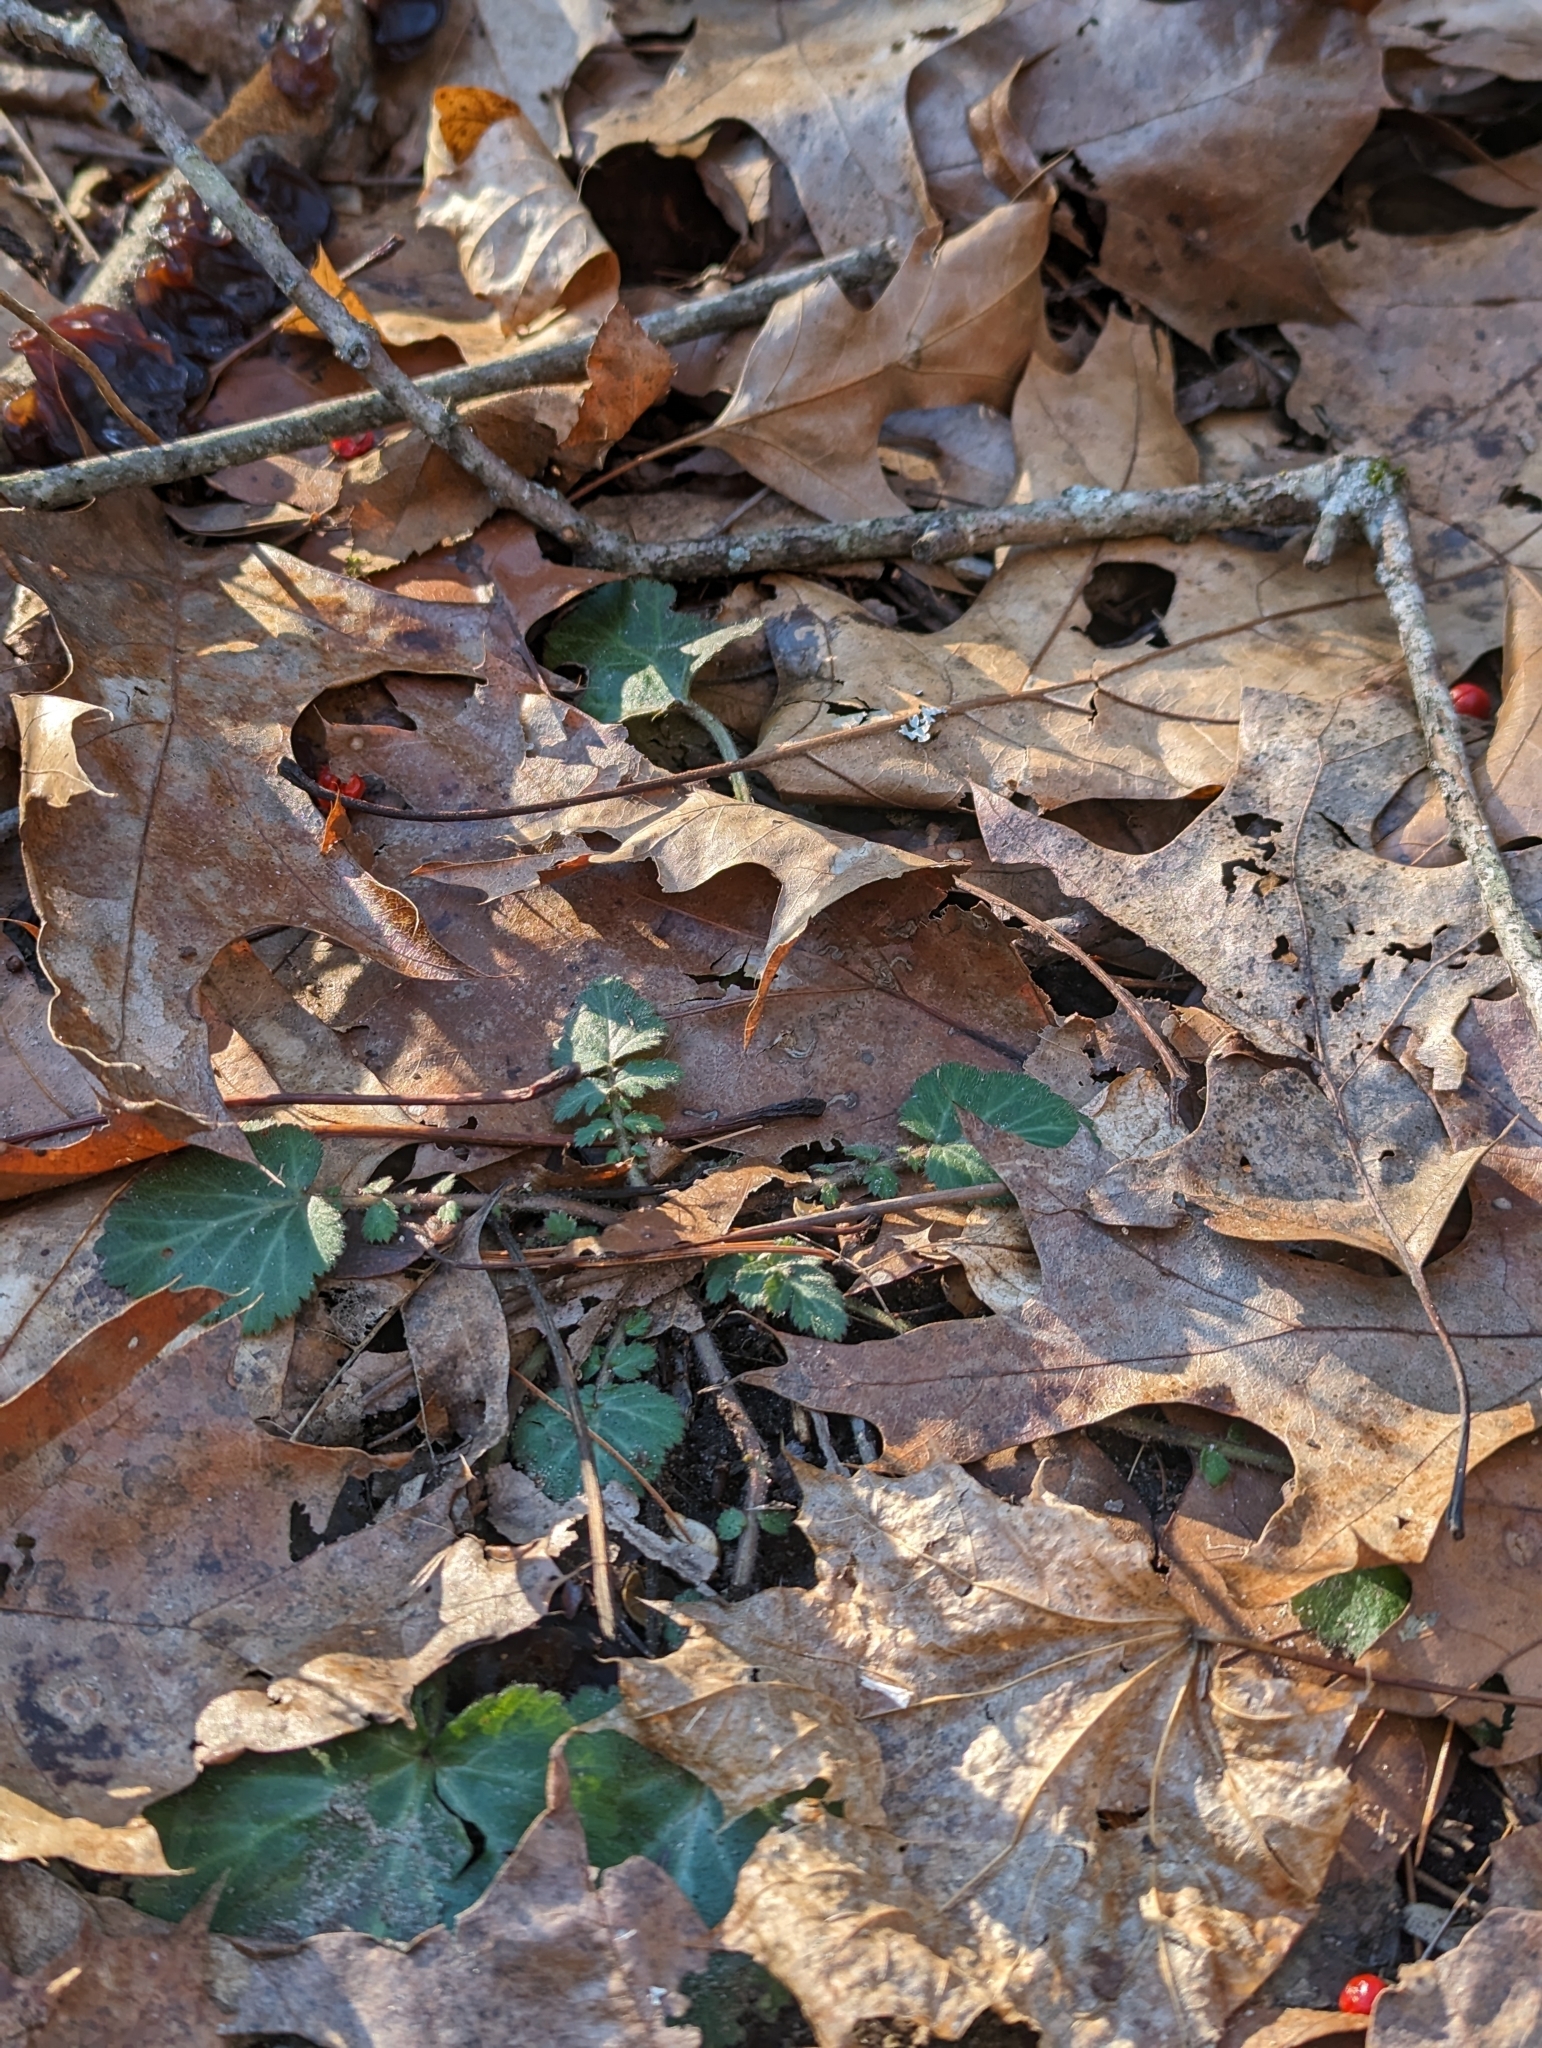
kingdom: Plantae
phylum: Tracheophyta
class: Magnoliopsida
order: Rosales
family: Rosaceae
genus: Geum
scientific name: Geum canadense
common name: White avens
